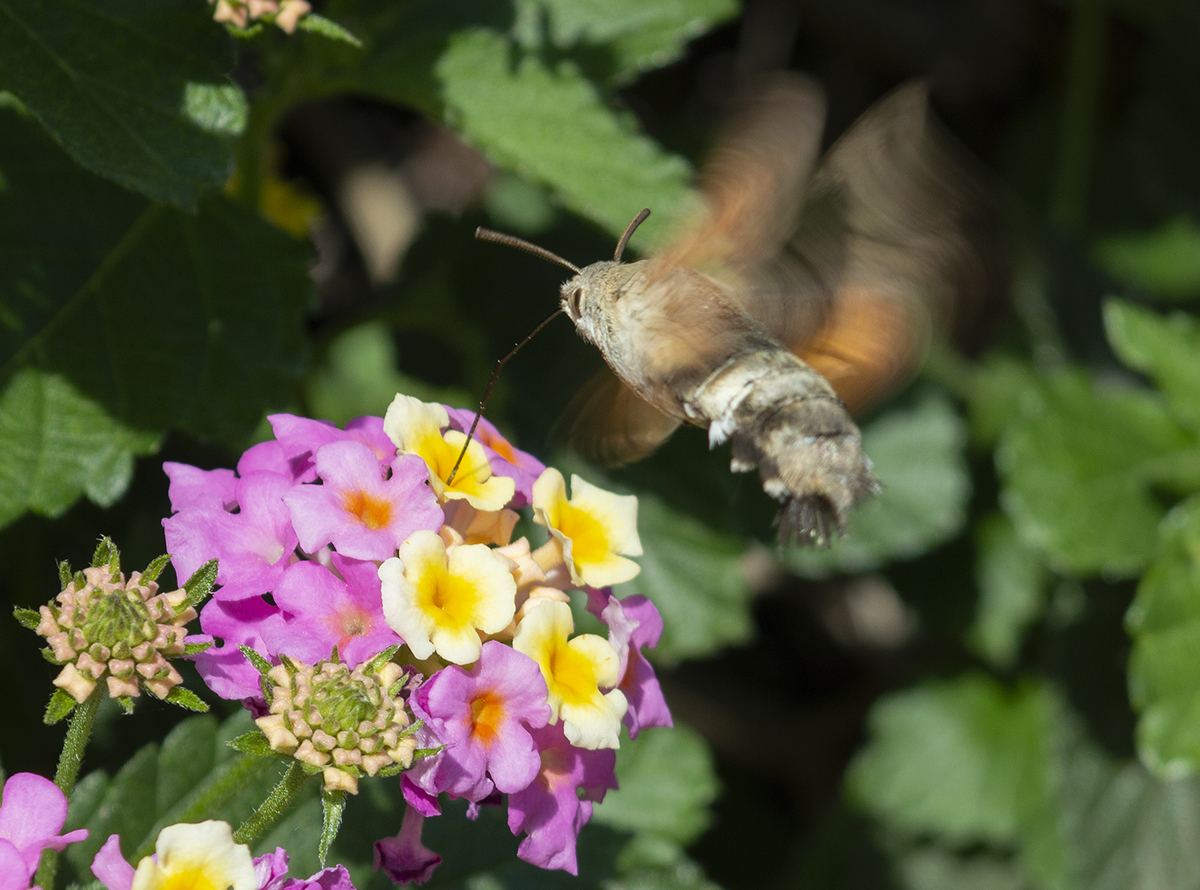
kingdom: Animalia
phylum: Arthropoda
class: Insecta
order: Lepidoptera
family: Sphingidae
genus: Macroglossum
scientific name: Macroglossum stellatarum
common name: Humming-bird hawk-moth
